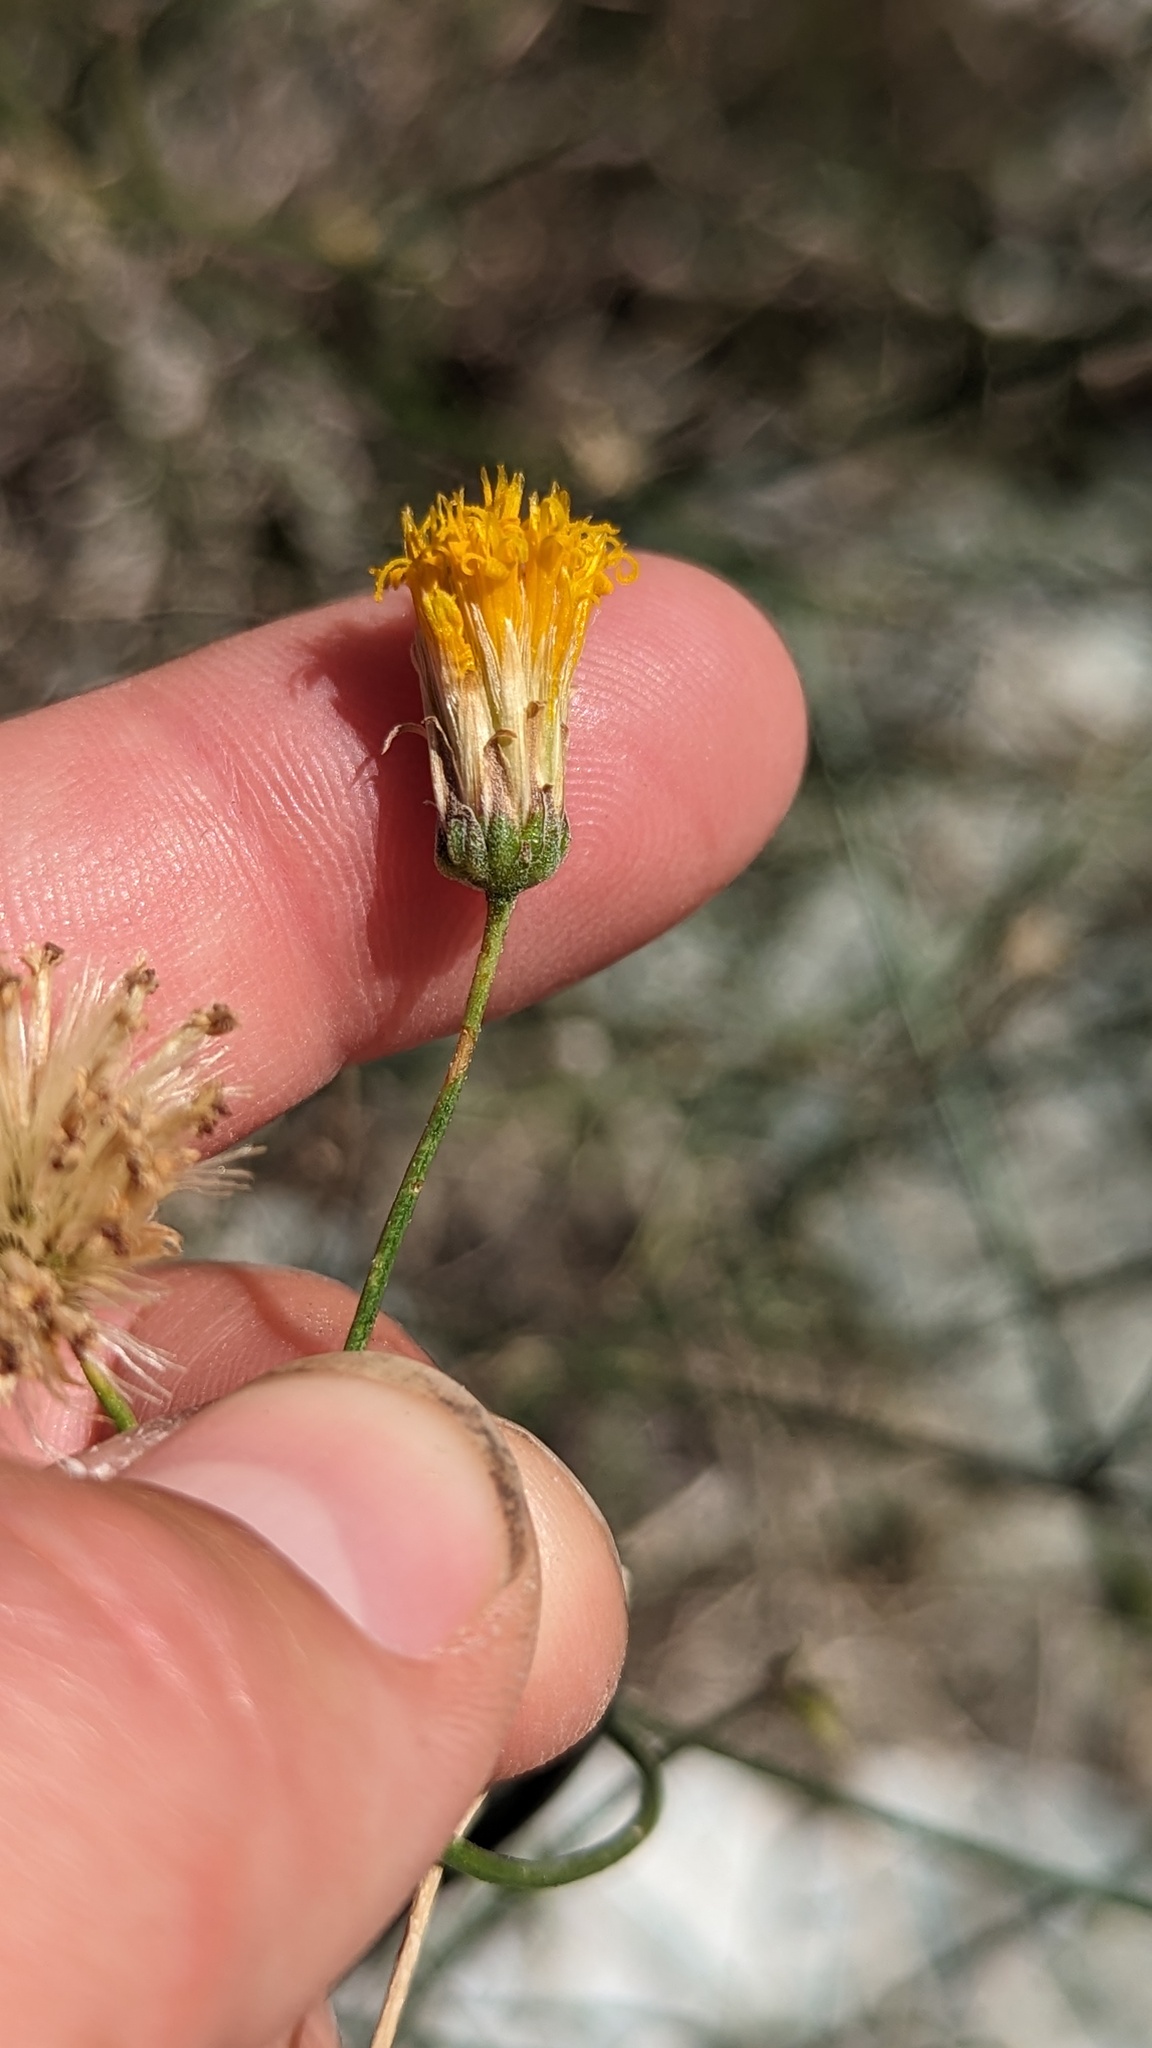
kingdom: Plantae
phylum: Tracheophyta
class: Magnoliopsida
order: Asterales
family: Asteraceae
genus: Bebbia
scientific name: Bebbia juncea
